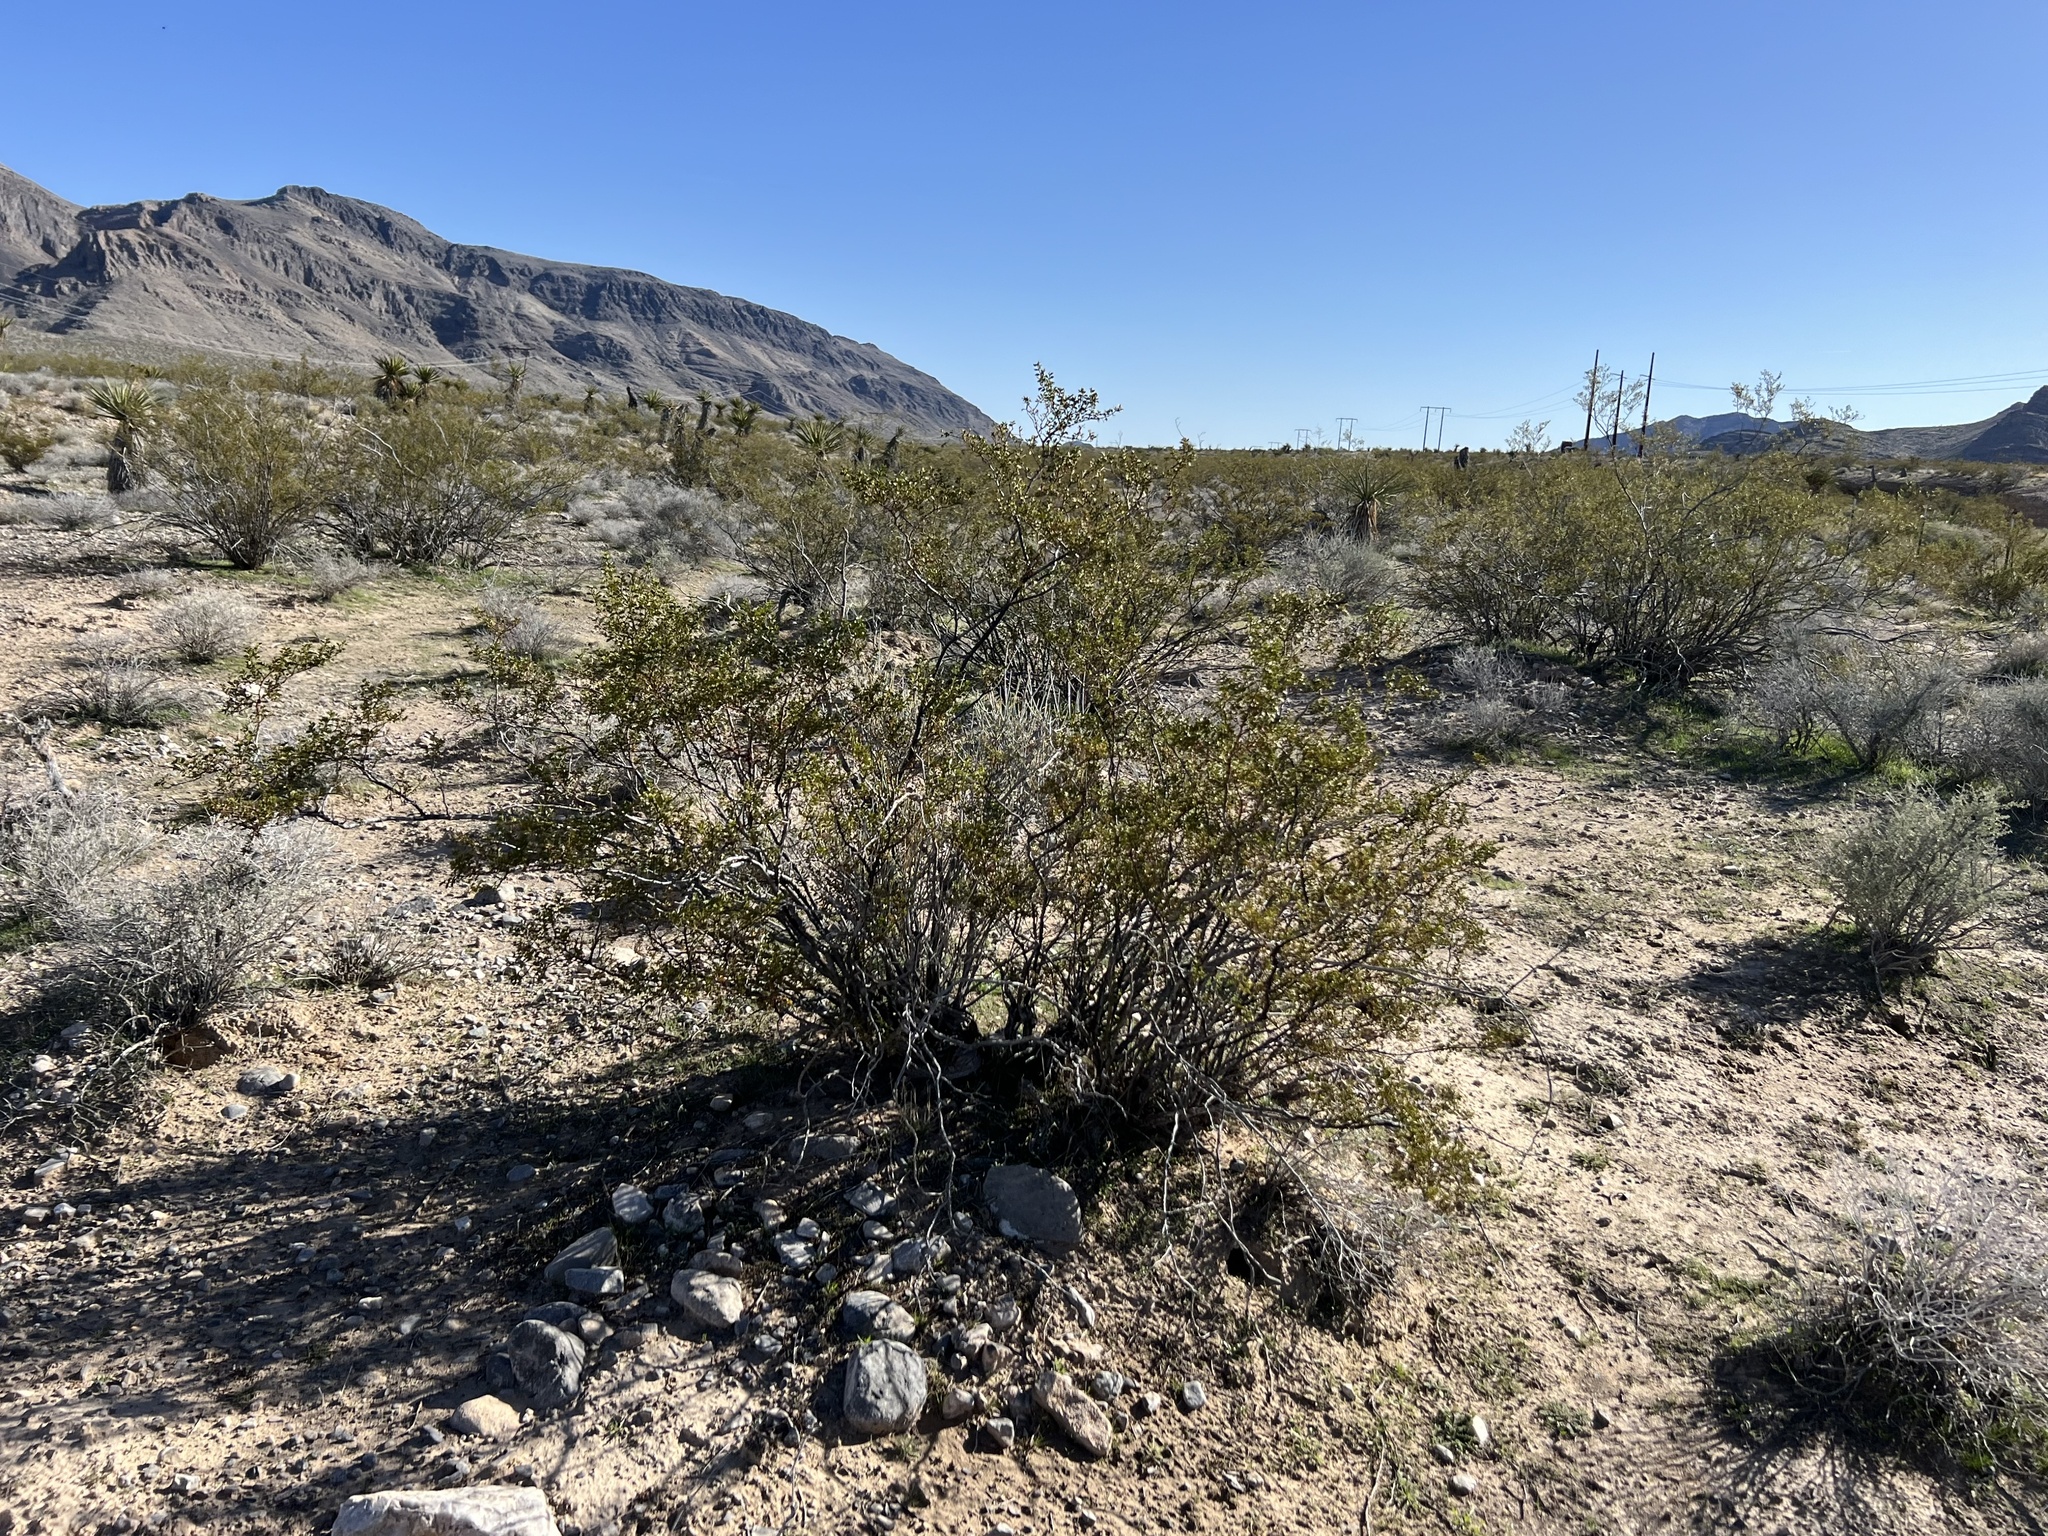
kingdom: Plantae
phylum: Tracheophyta
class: Magnoliopsida
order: Zygophyllales
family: Zygophyllaceae
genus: Larrea
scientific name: Larrea tridentata
